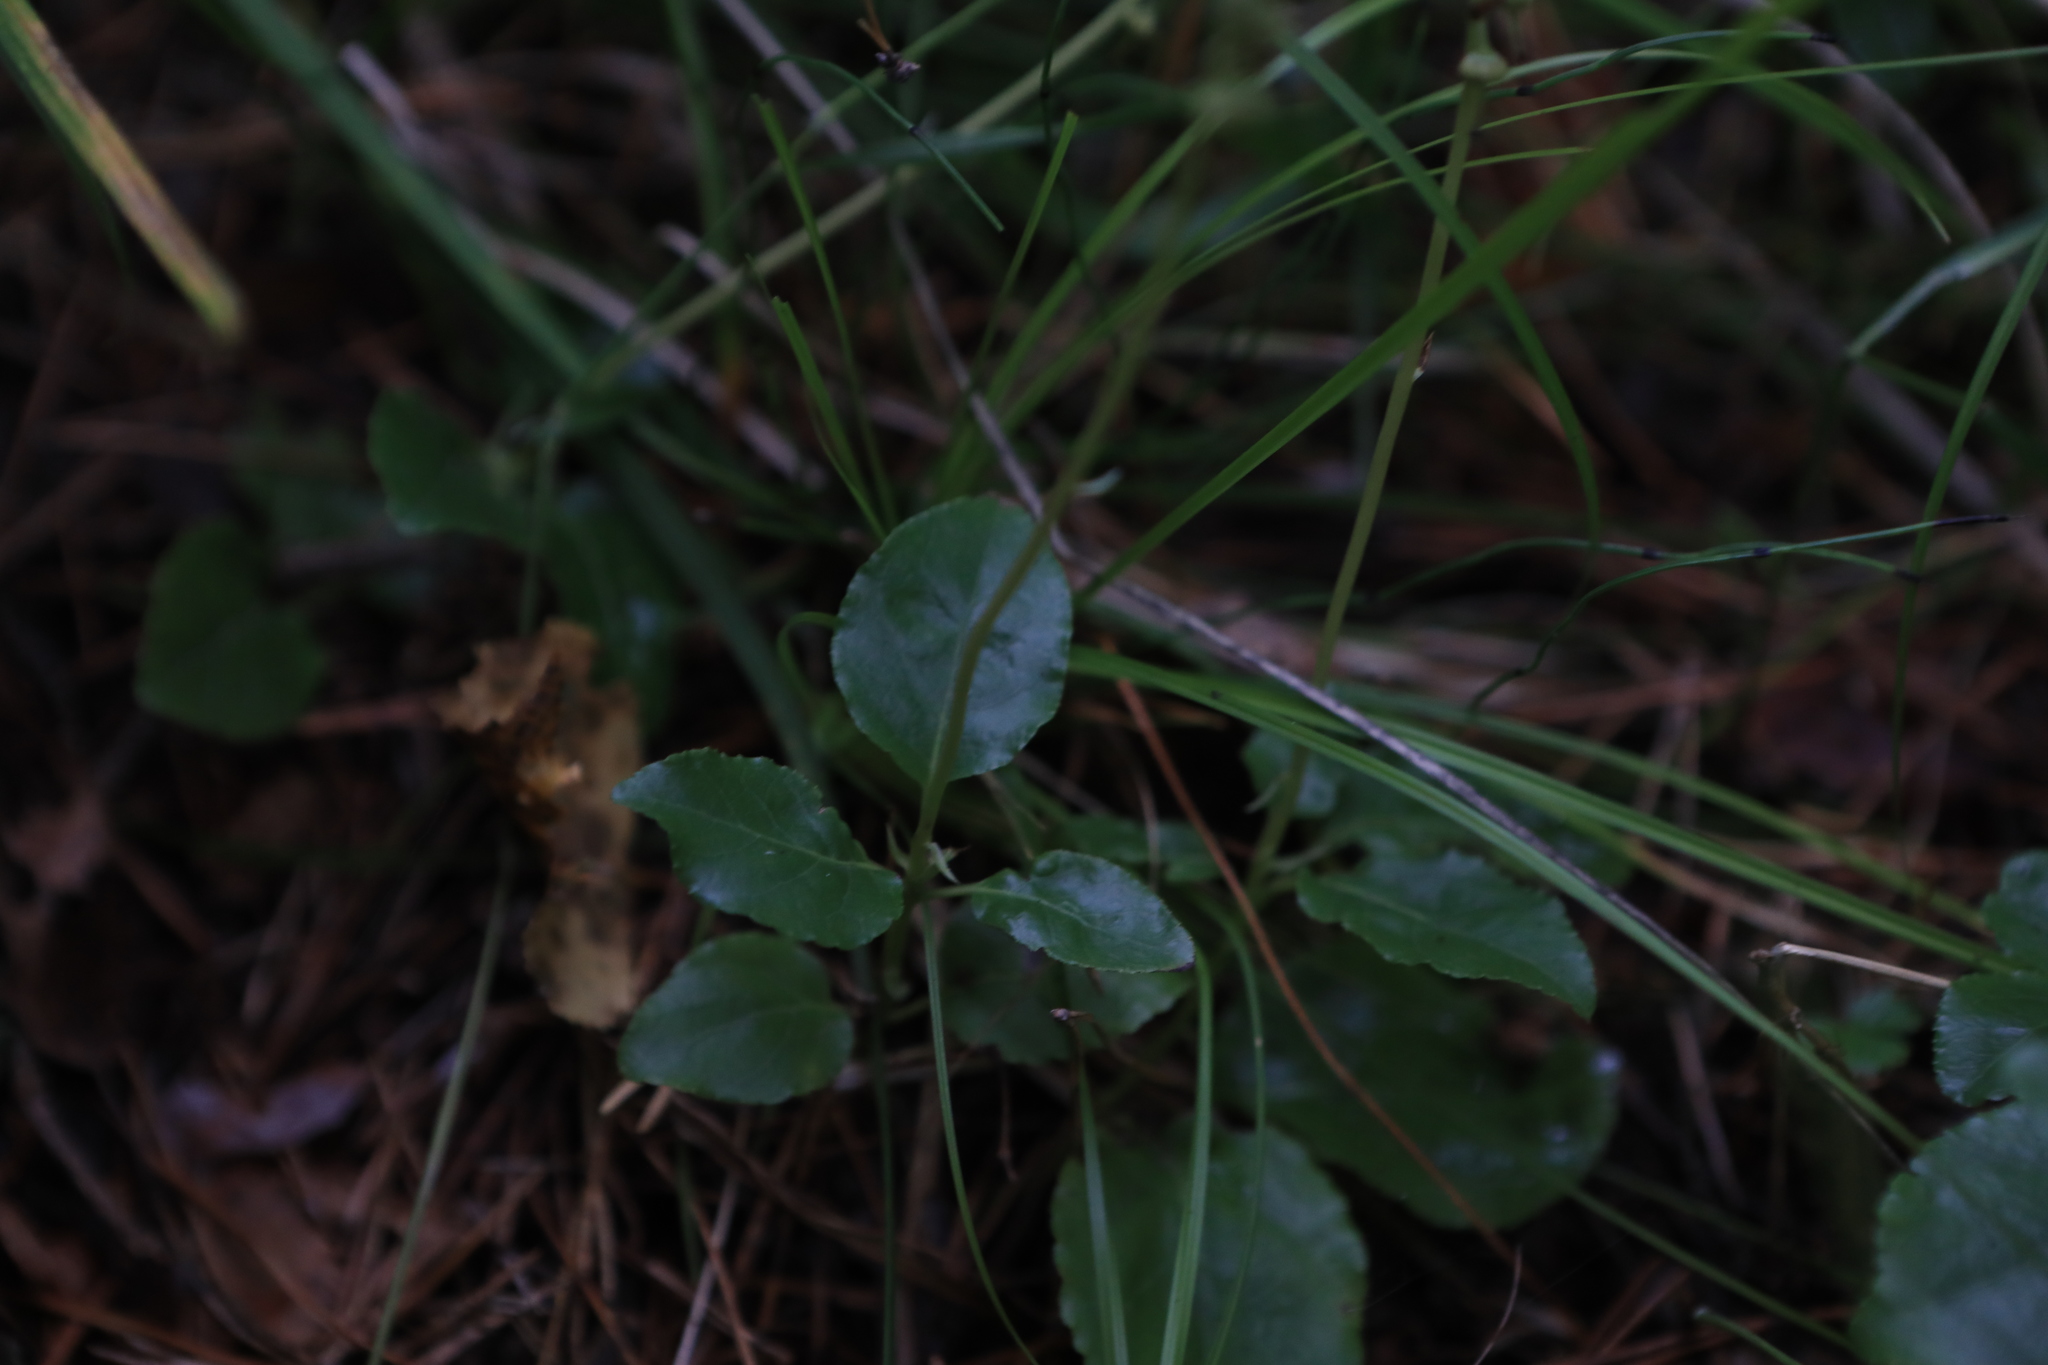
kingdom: Plantae
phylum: Tracheophyta
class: Magnoliopsida
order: Ericales
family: Ericaceae
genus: Orthilia
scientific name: Orthilia secunda
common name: One-sided orthilia
